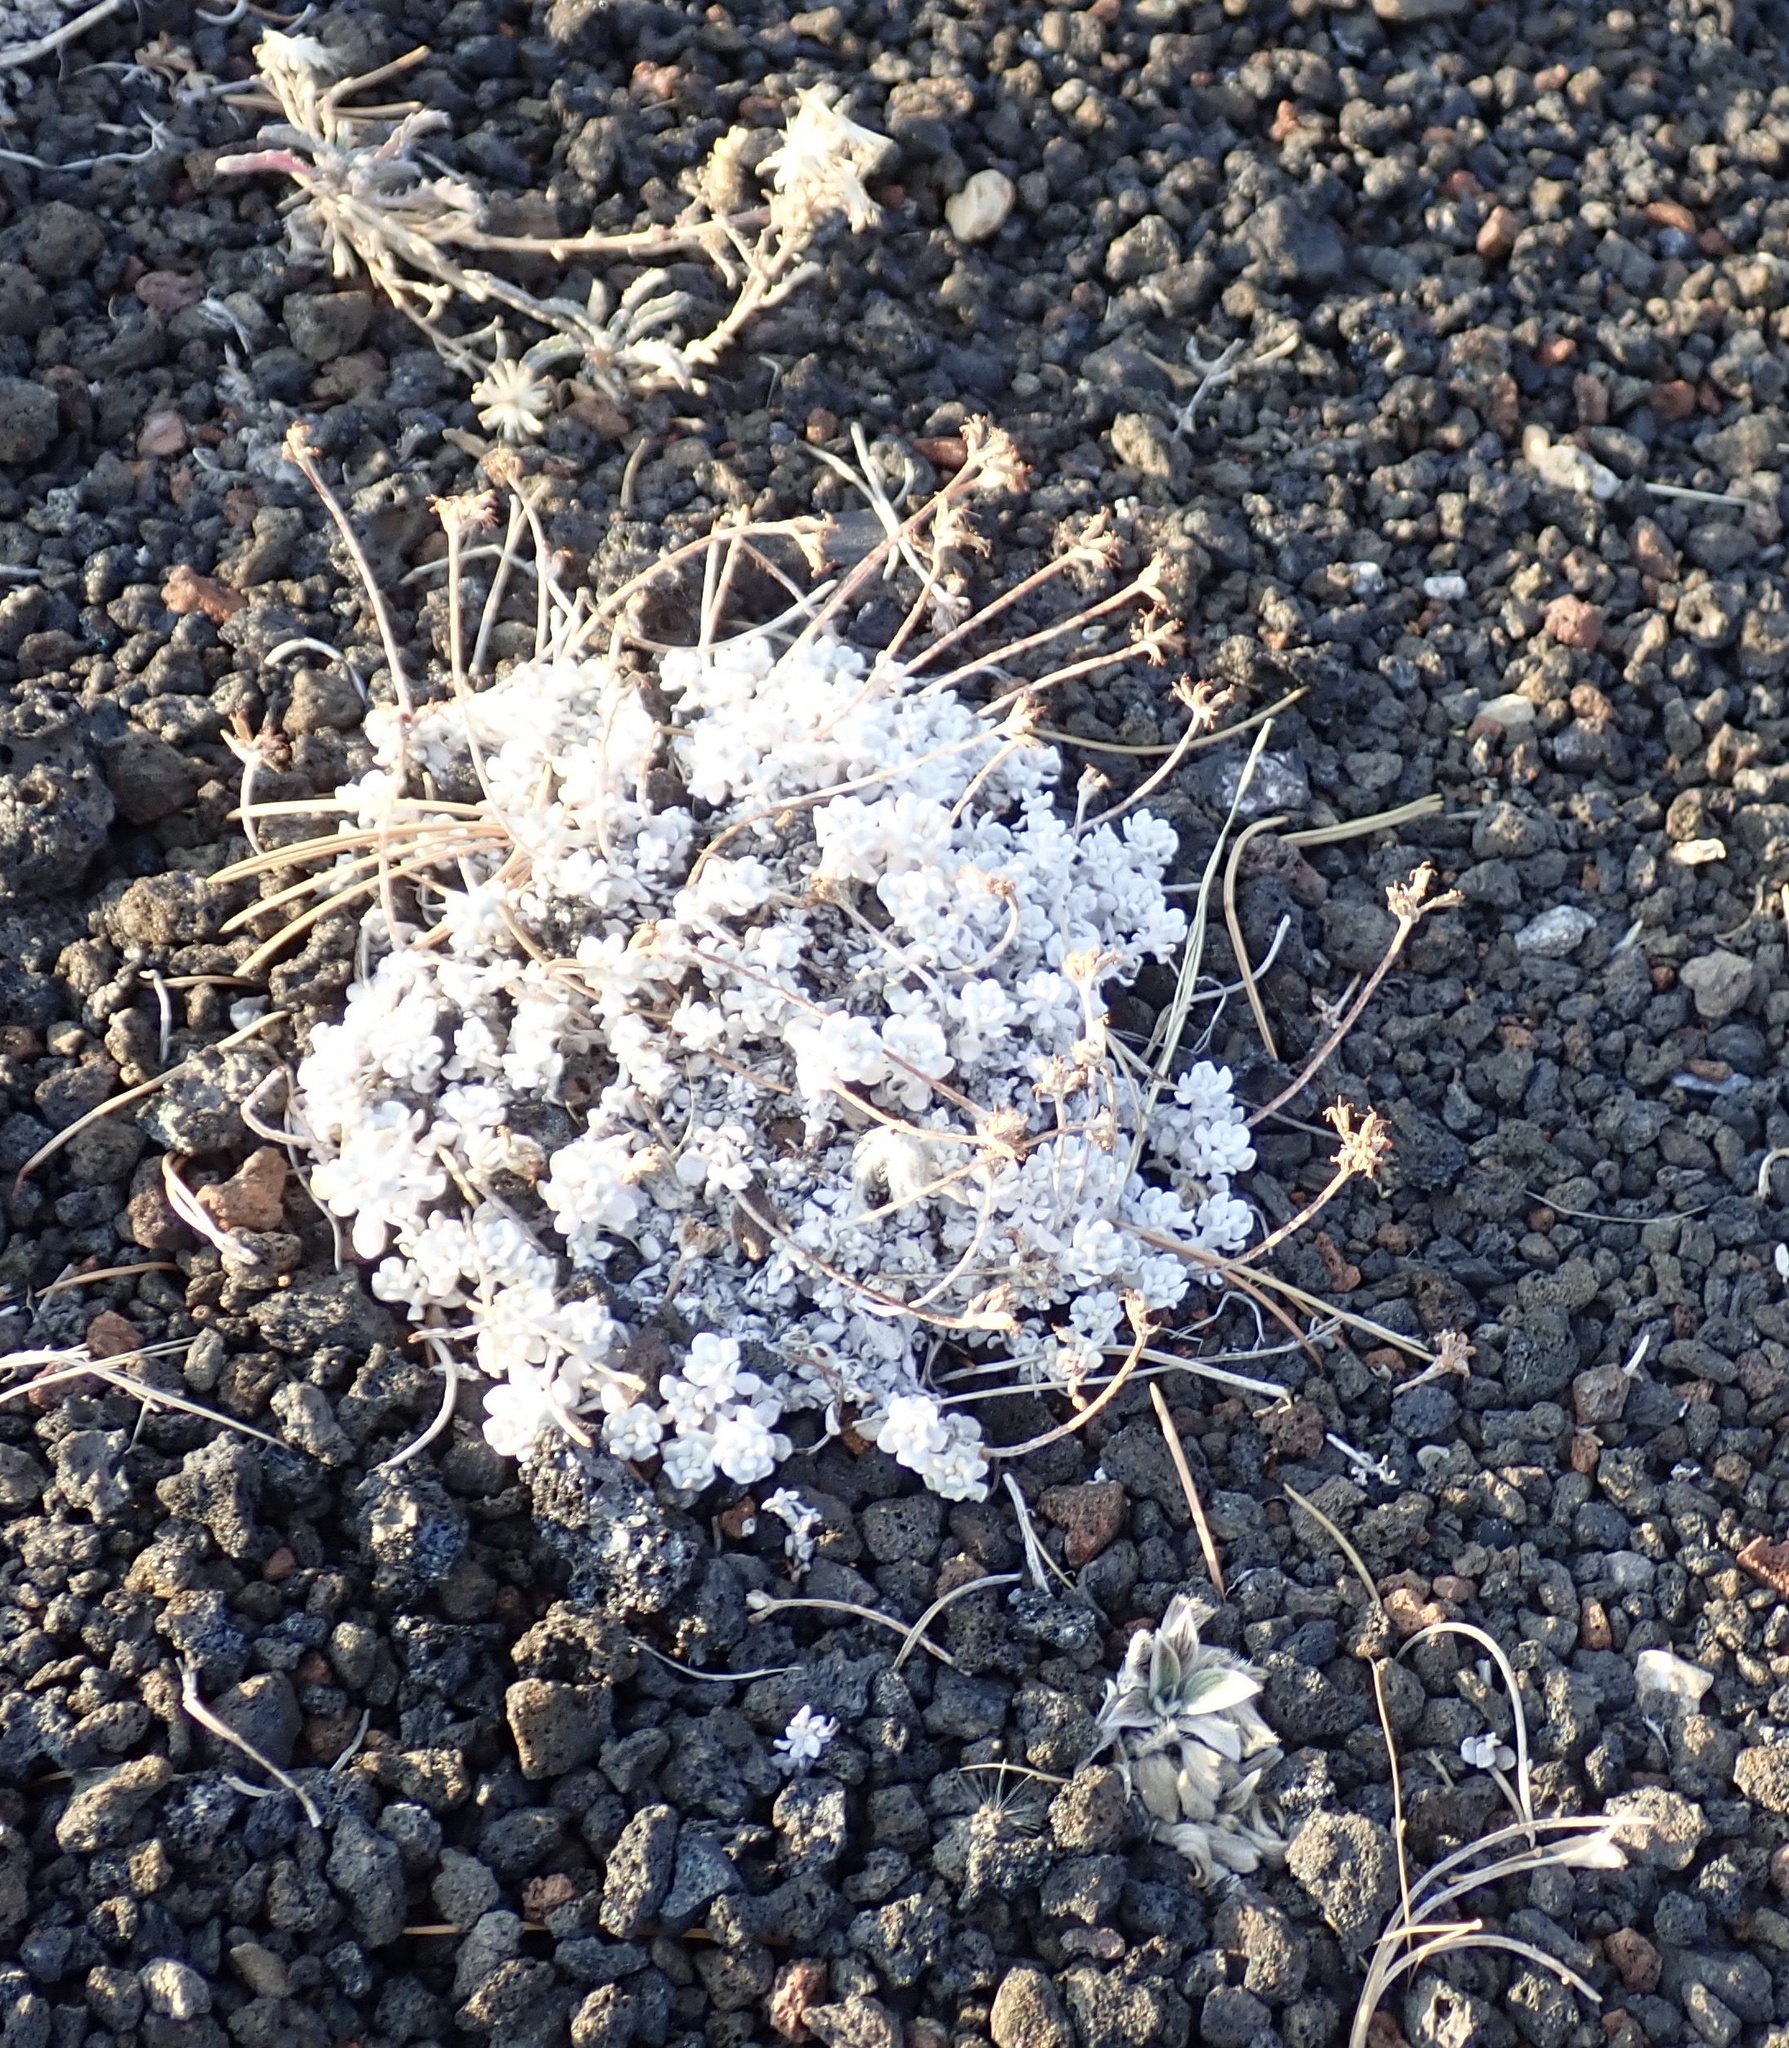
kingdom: Plantae
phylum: Tracheophyta
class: Magnoliopsida
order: Caryophyllales
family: Polygonaceae
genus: Eriogonum
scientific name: Eriogonum ovalifolium
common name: Cushion buckwheat
